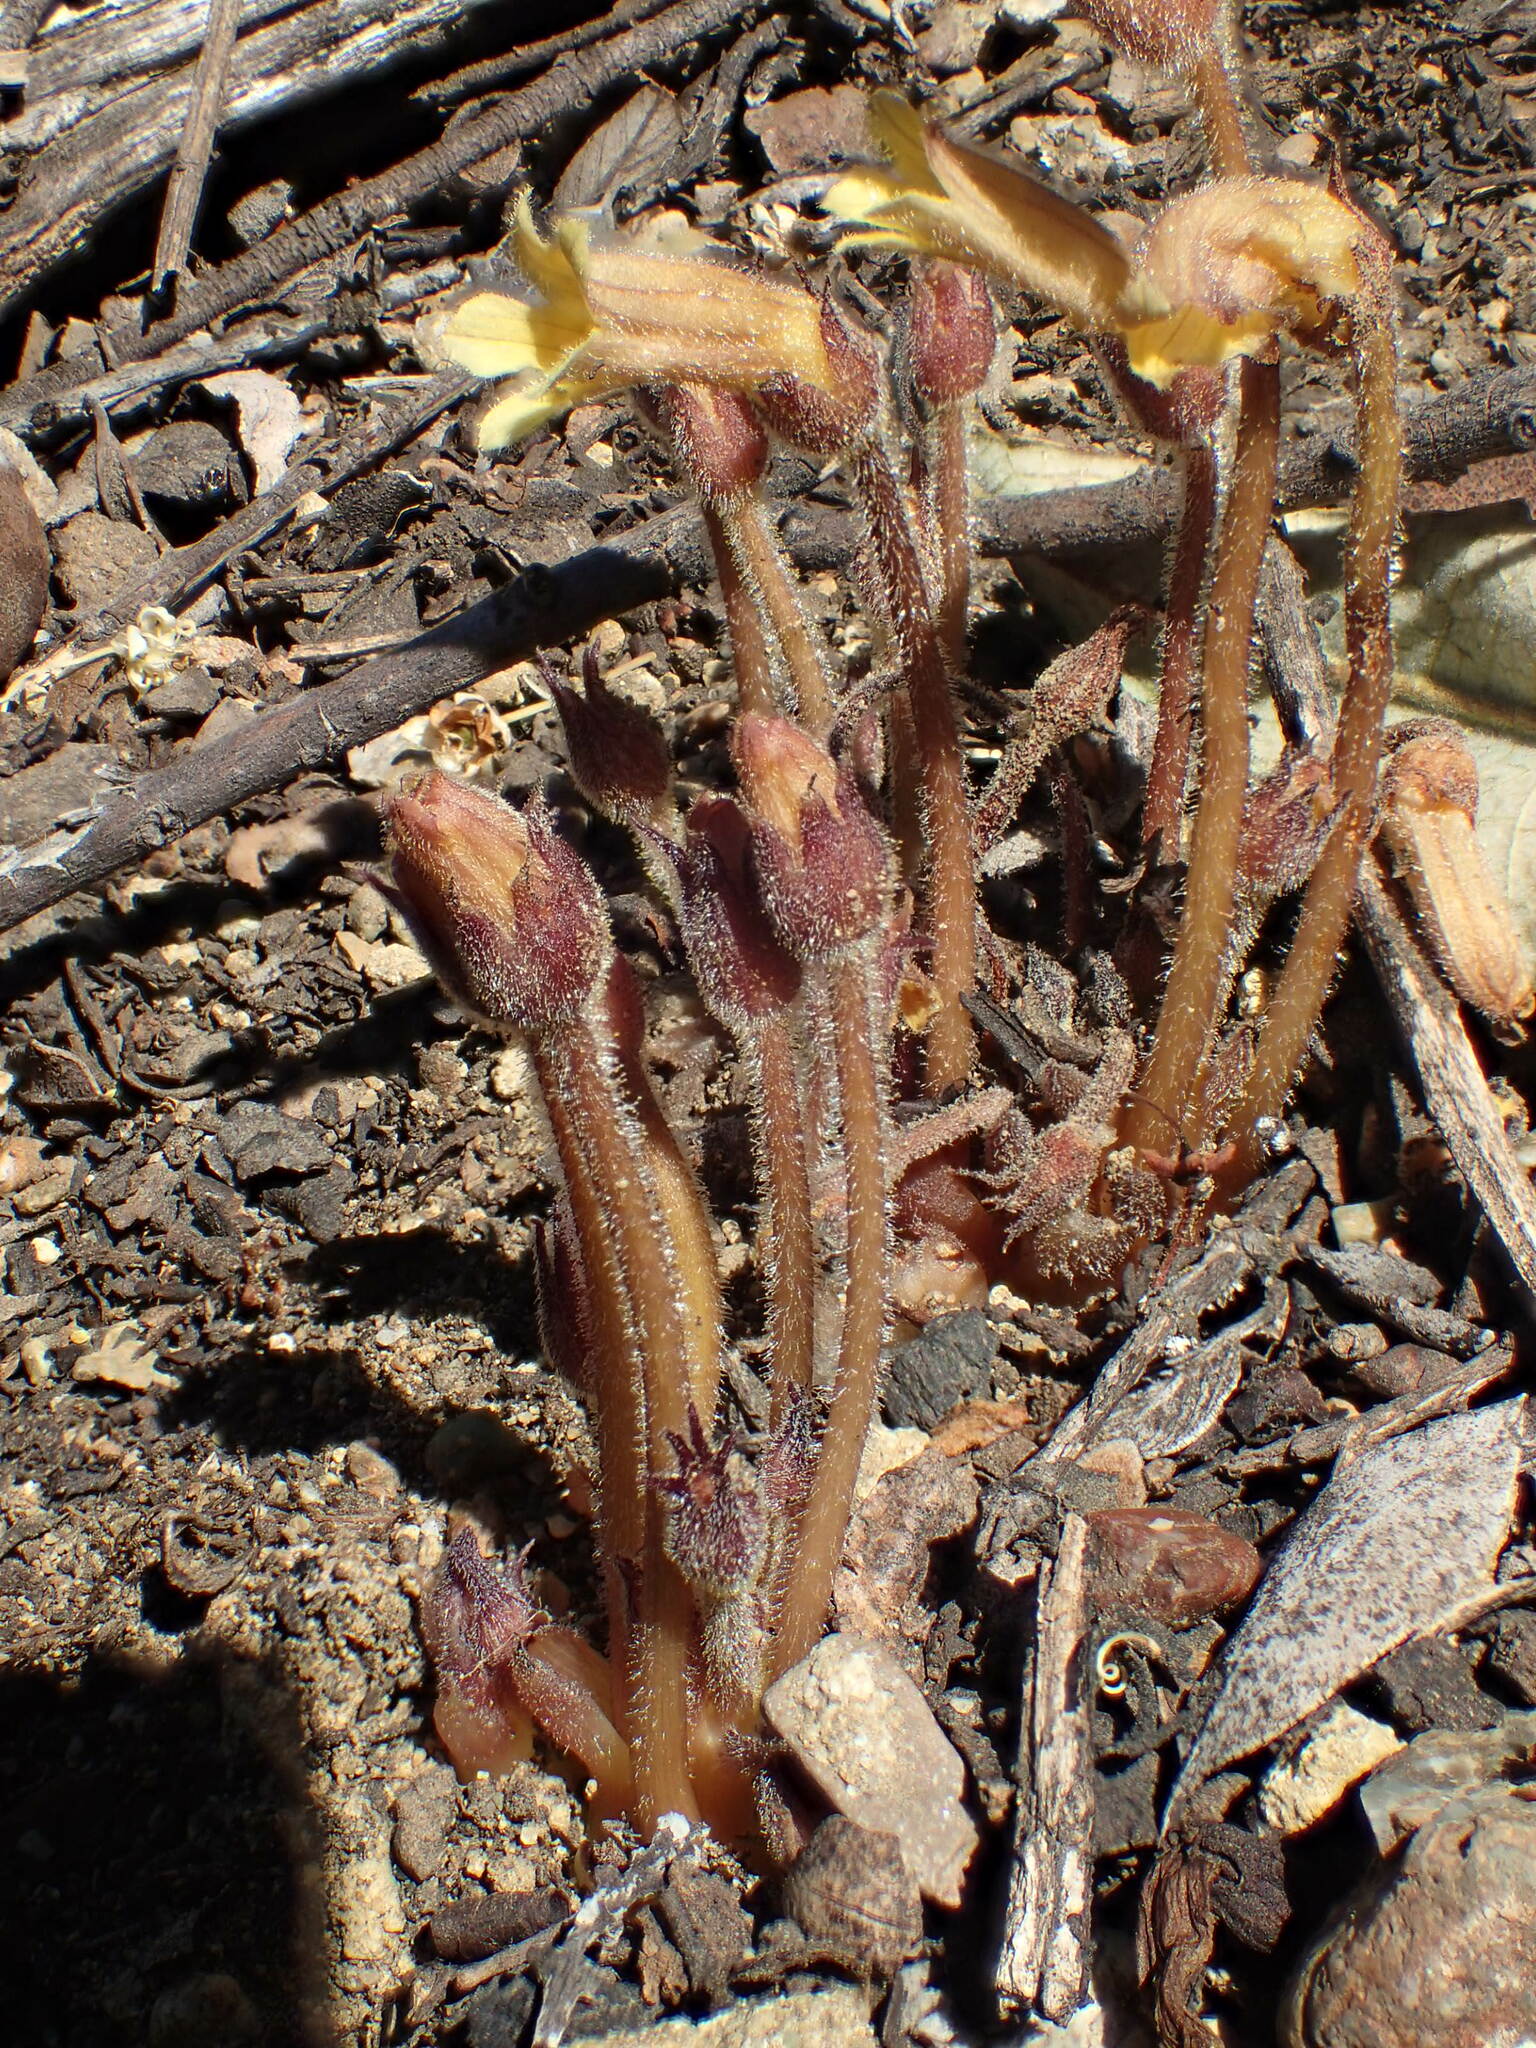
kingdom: Plantae
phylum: Tracheophyta
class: Magnoliopsida
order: Lamiales
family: Orobanchaceae
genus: Aphyllon
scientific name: Aphyllon franciscanum
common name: San francisco broomrape
